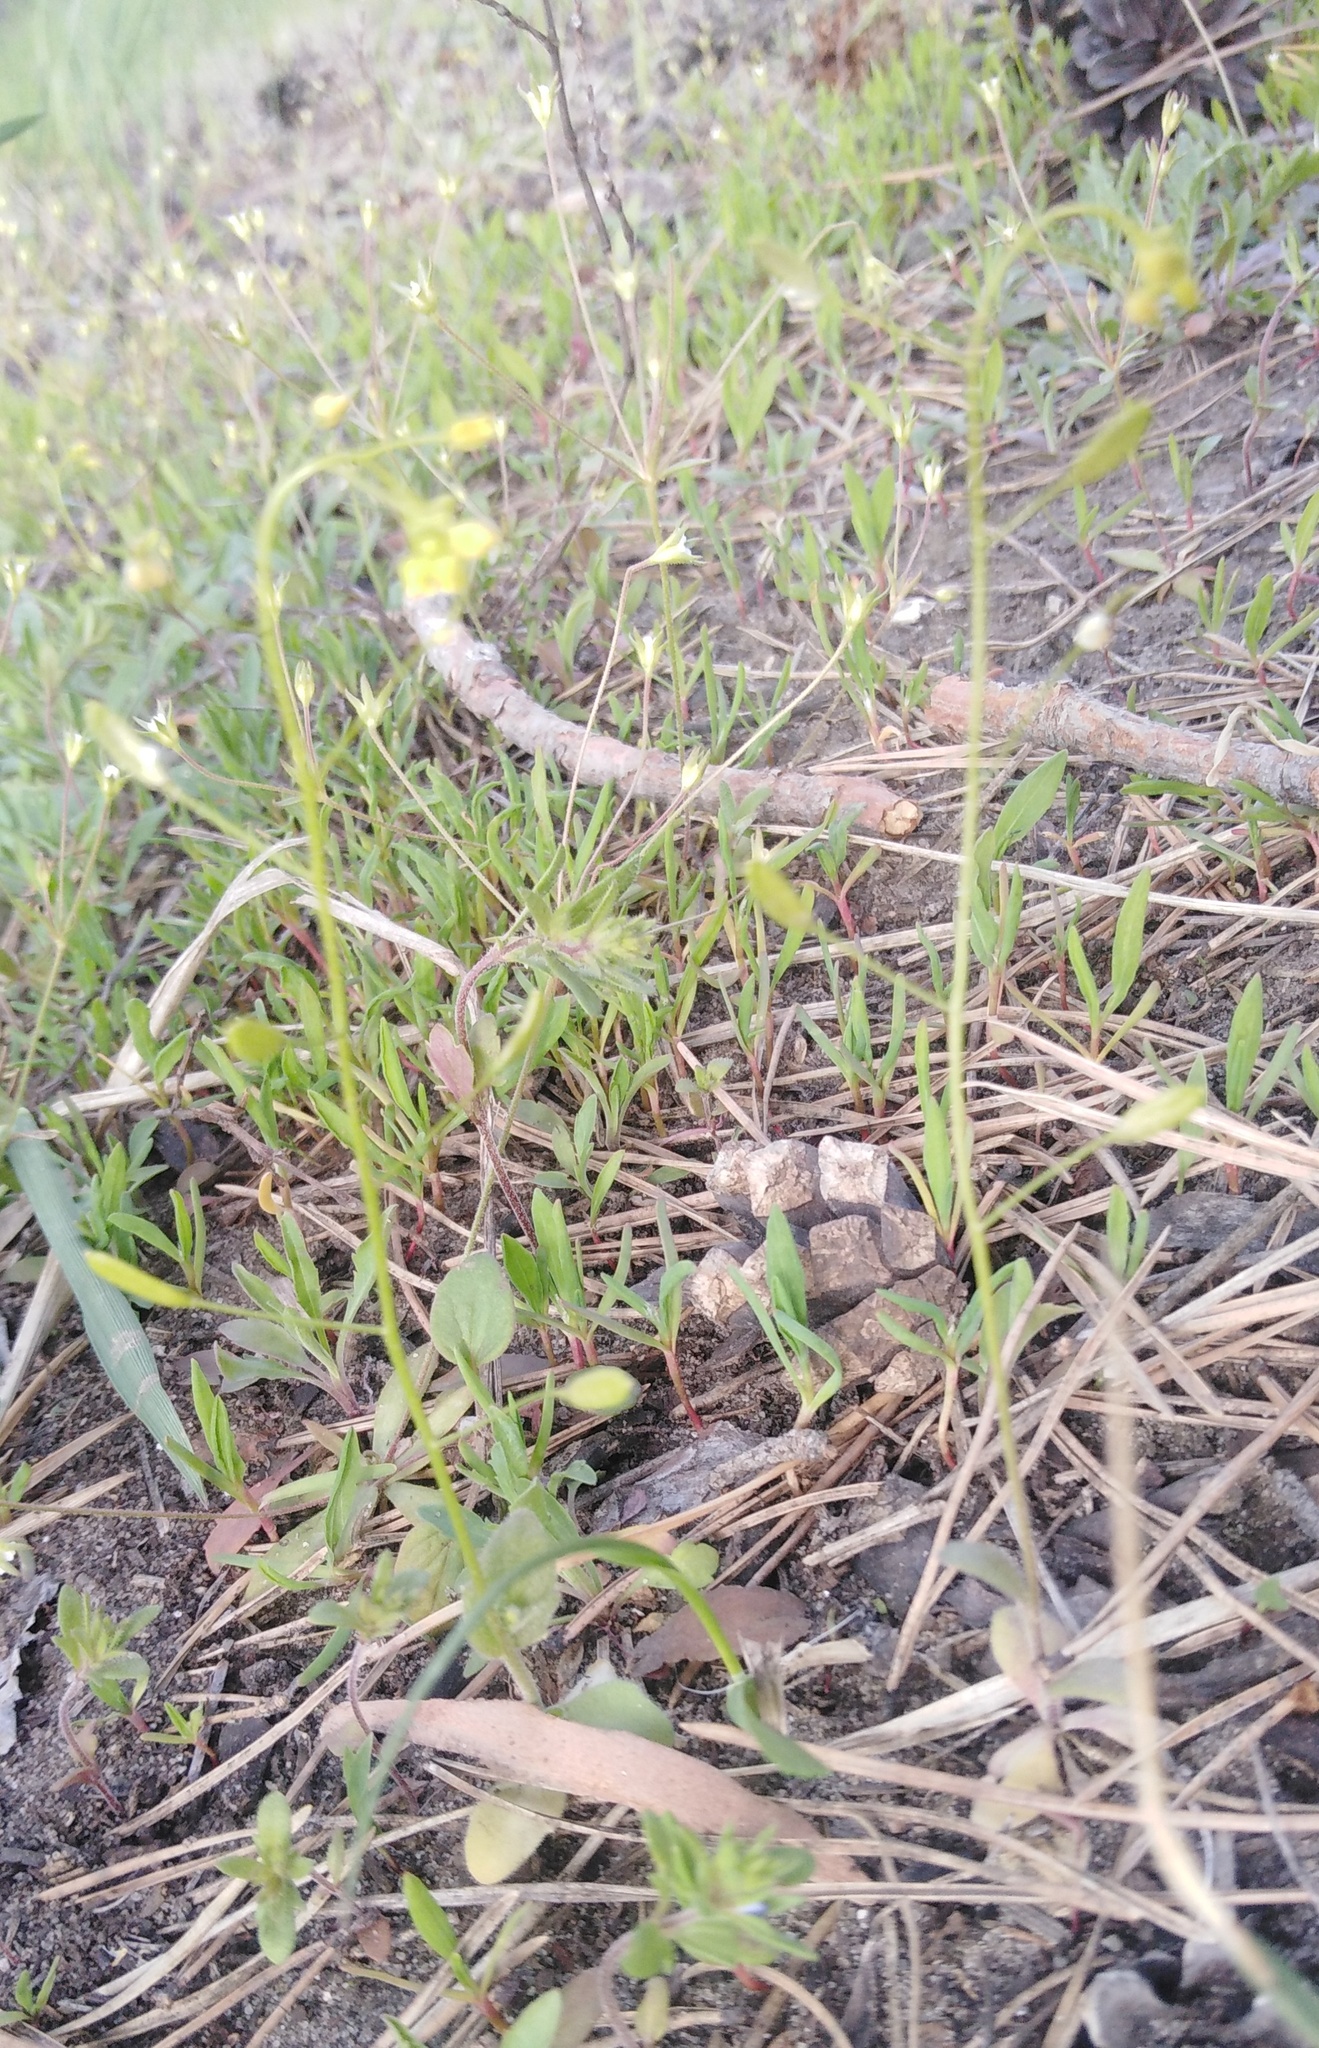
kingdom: Plantae
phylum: Tracheophyta
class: Magnoliopsida
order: Brassicales
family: Brassicaceae
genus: Draba
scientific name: Draba nemorosa
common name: Wood whitlow-grass
